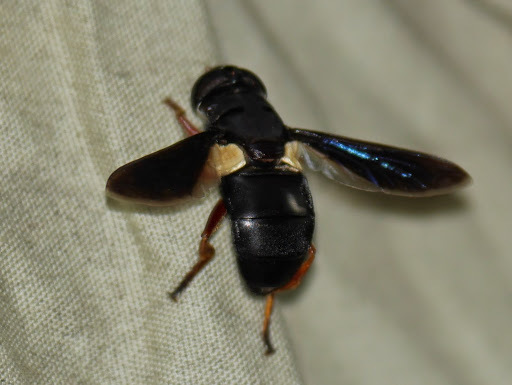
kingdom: Animalia
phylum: Arthropoda
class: Insecta
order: Diptera
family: Syrphidae
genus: Senaspis
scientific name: Senaspis dibapha
